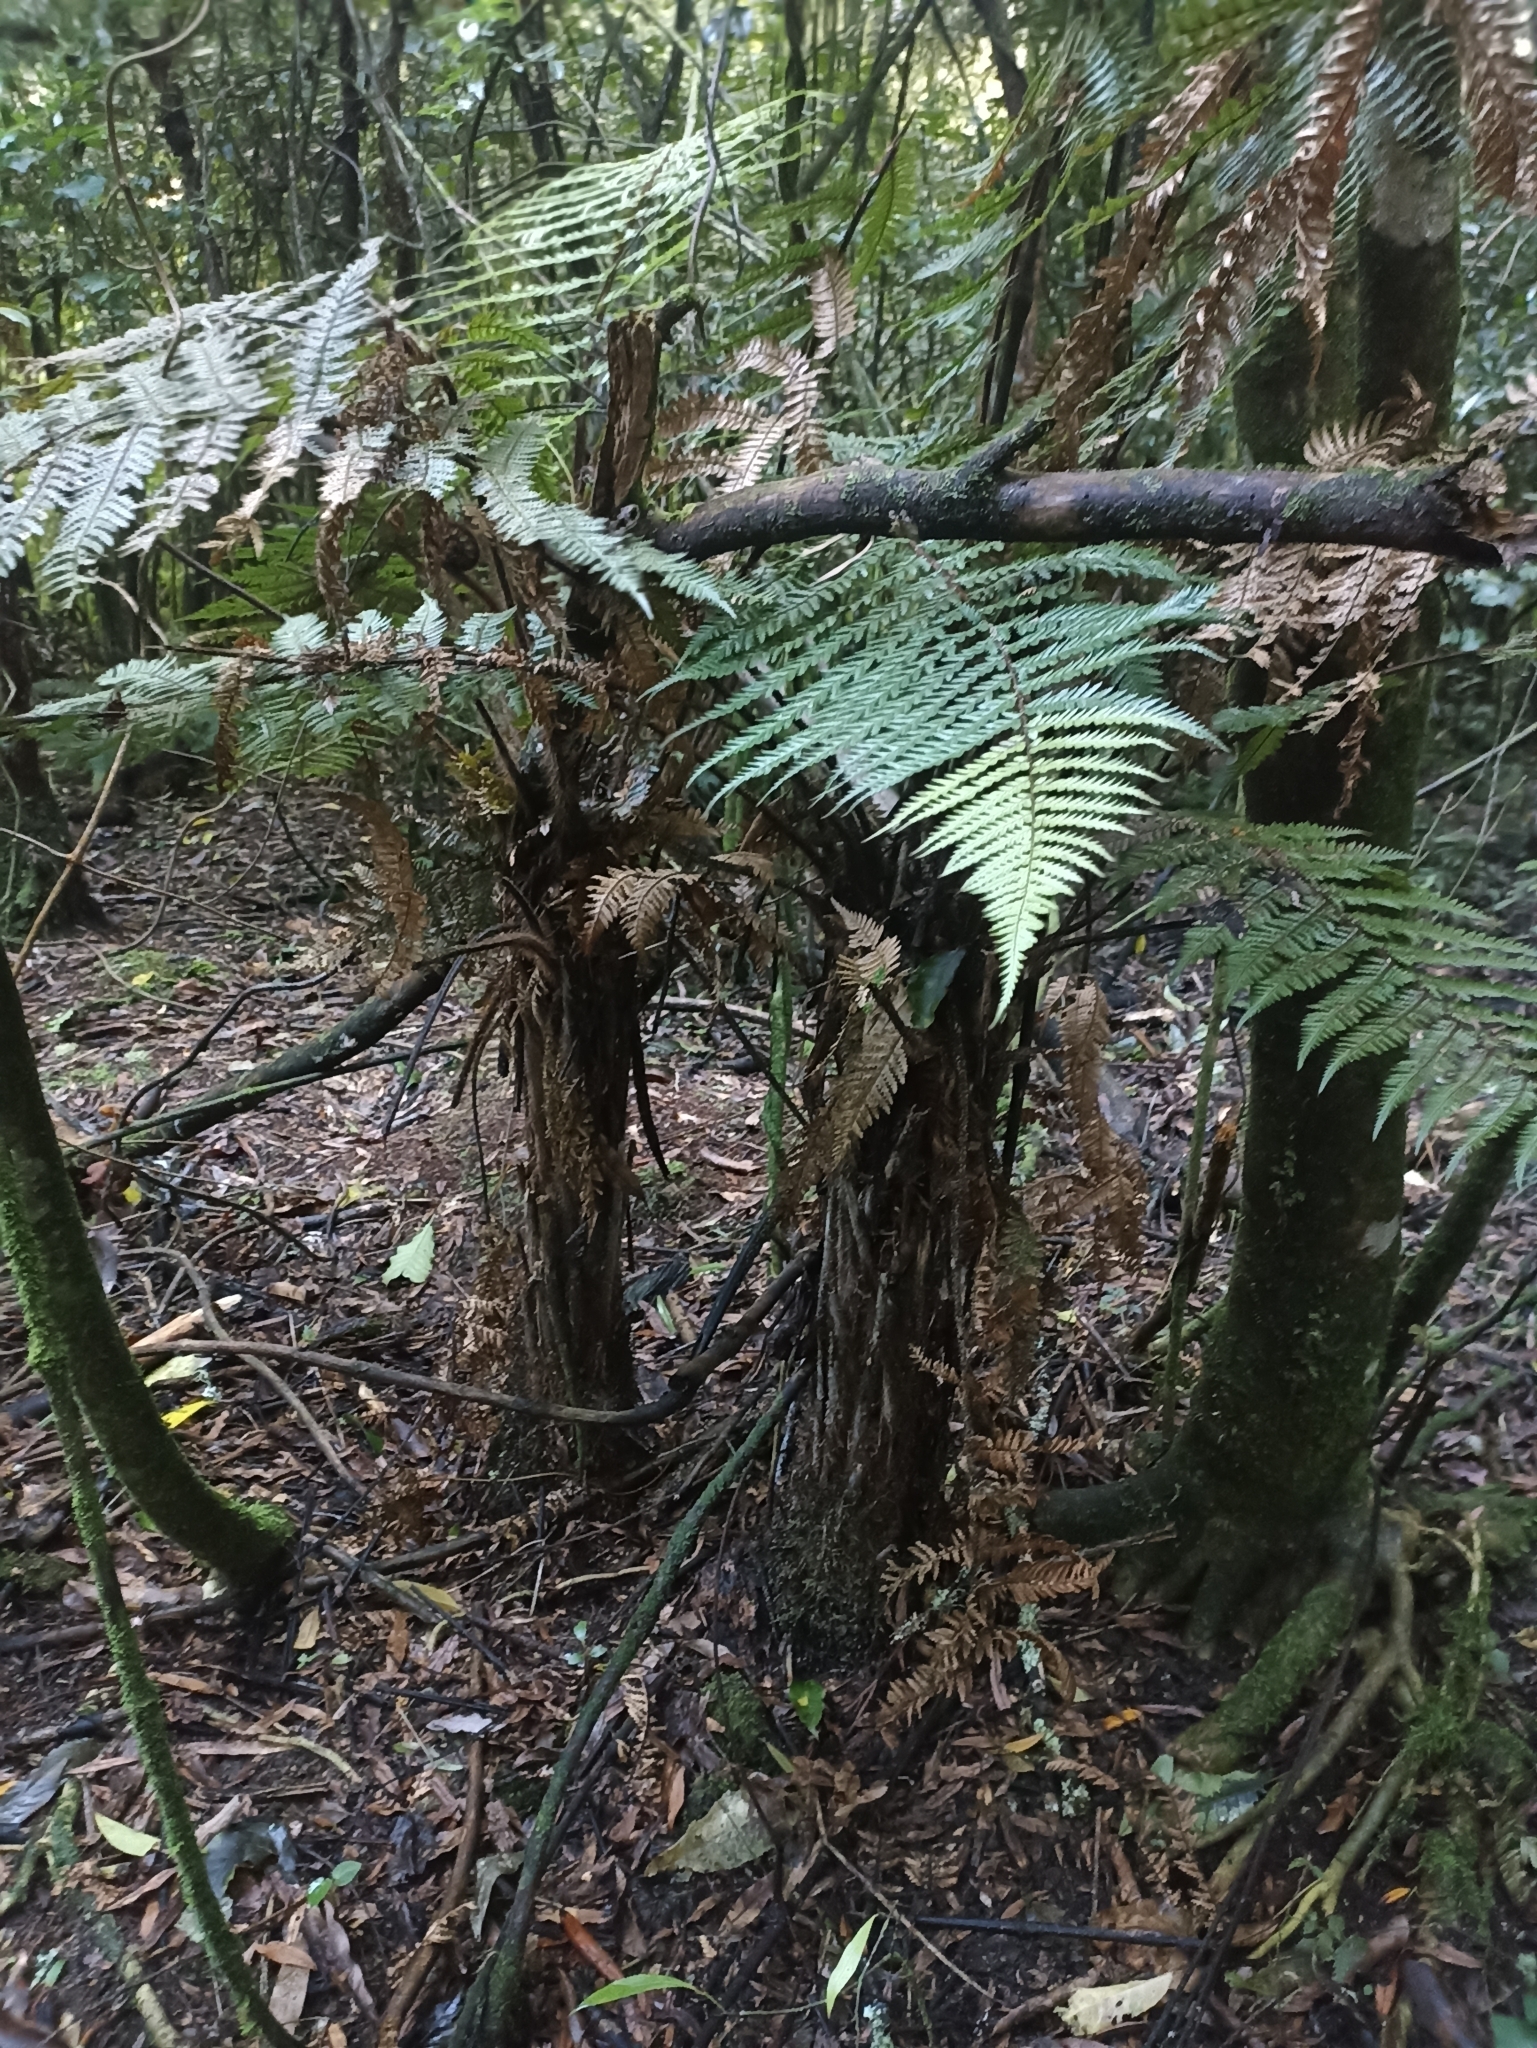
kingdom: Plantae
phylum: Tracheophyta
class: Polypodiopsida
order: Cyatheales
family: Dicksoniaceae
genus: Dicksonia
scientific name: Dicksonia squarrosa
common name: Hard treefern
